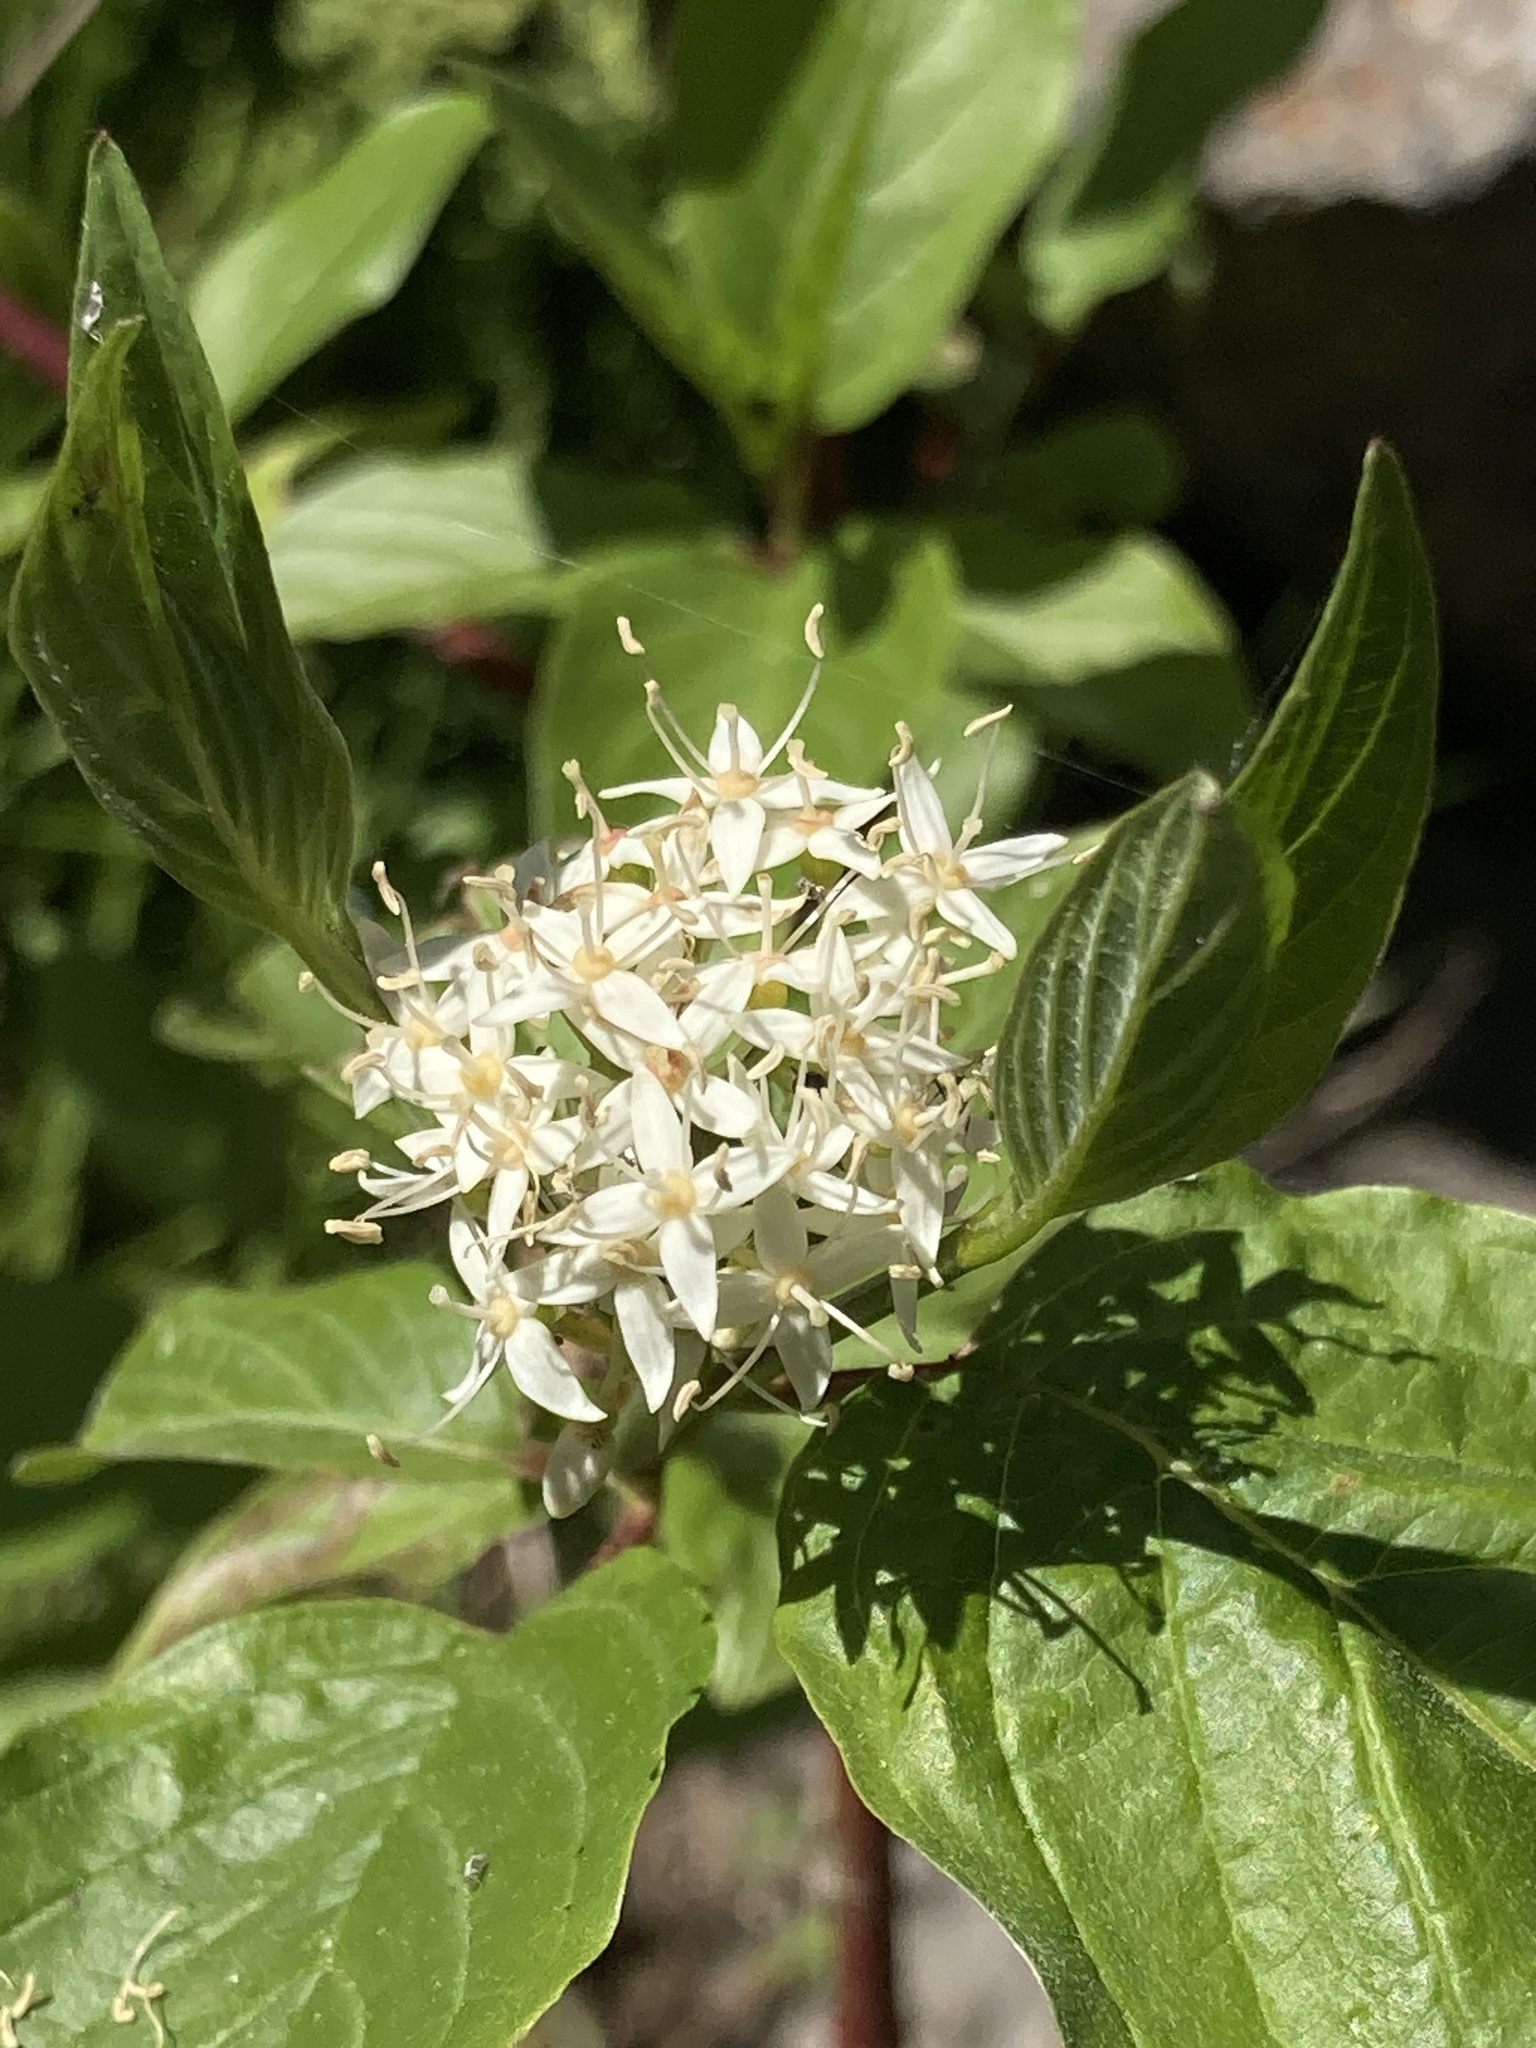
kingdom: Plantae
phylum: Tracheophyta
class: Magnoliopsida
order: Cornales
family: Cornaceae
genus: Cornus
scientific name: Cornus sericea
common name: Red-osier dogwood
